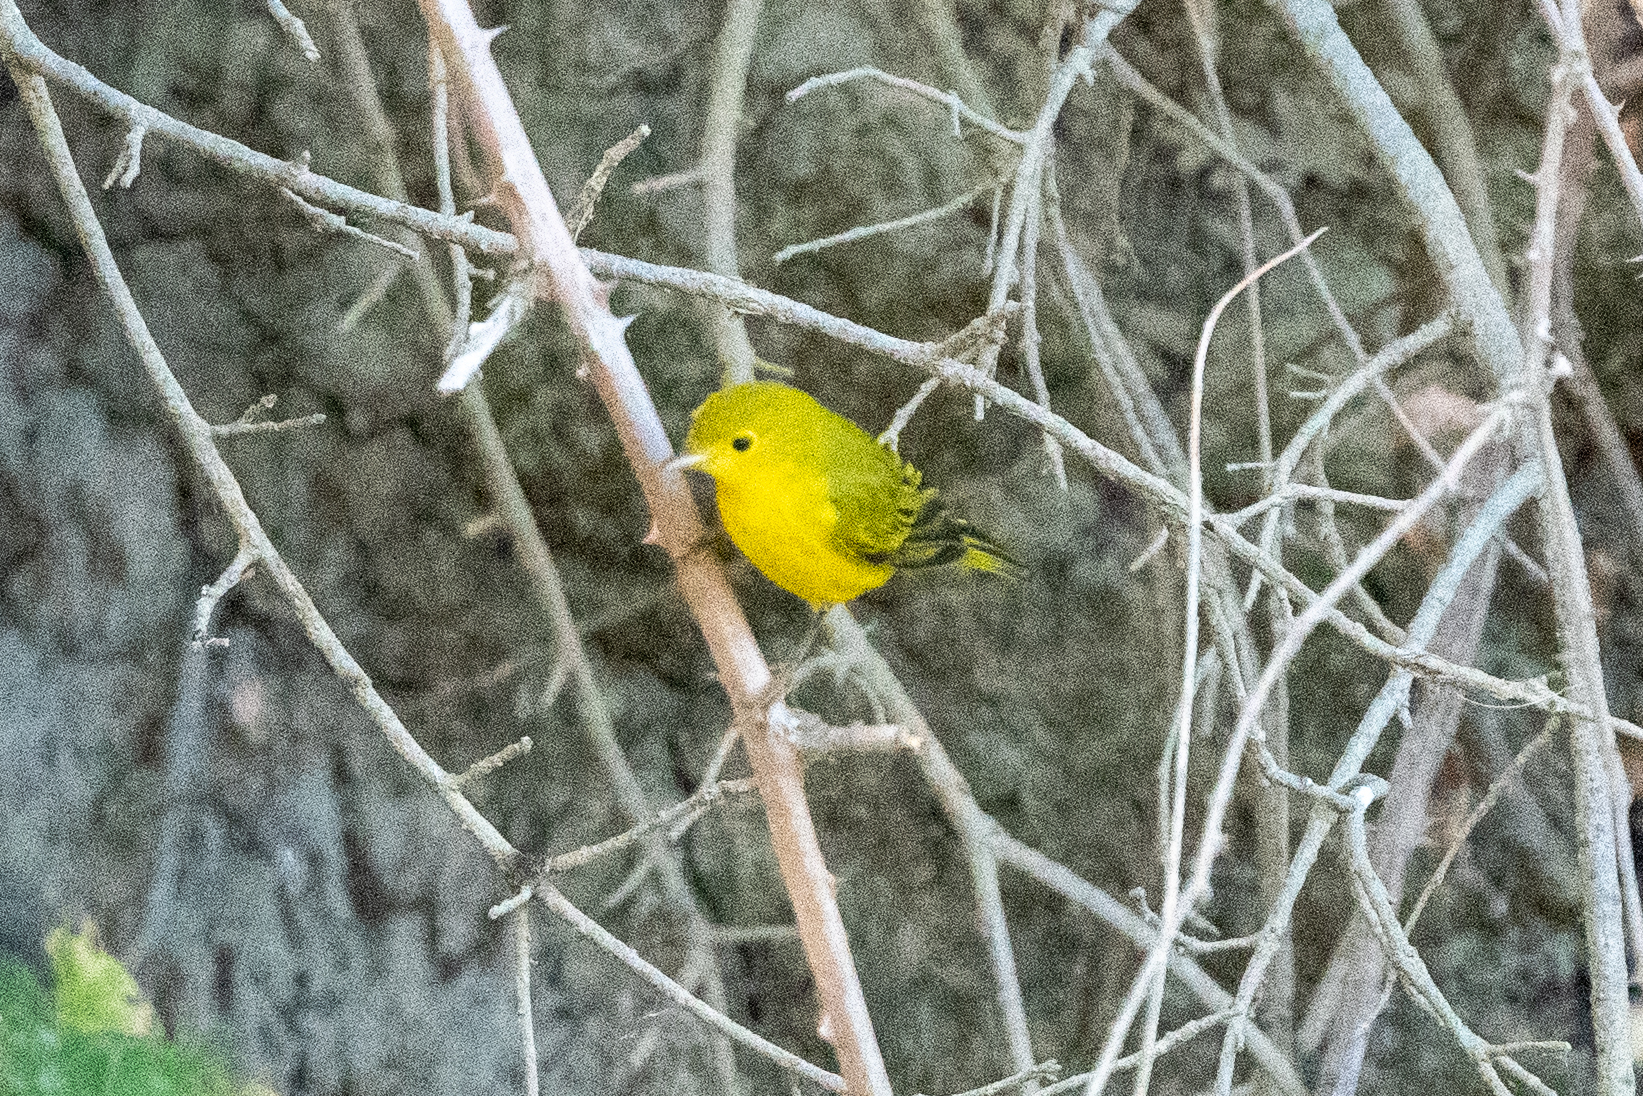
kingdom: Animalia
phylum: Chordata
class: Aves
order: Passeriformes
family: Parulidae
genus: Setophaga
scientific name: Setophaga petechia
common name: Yellow warbler
